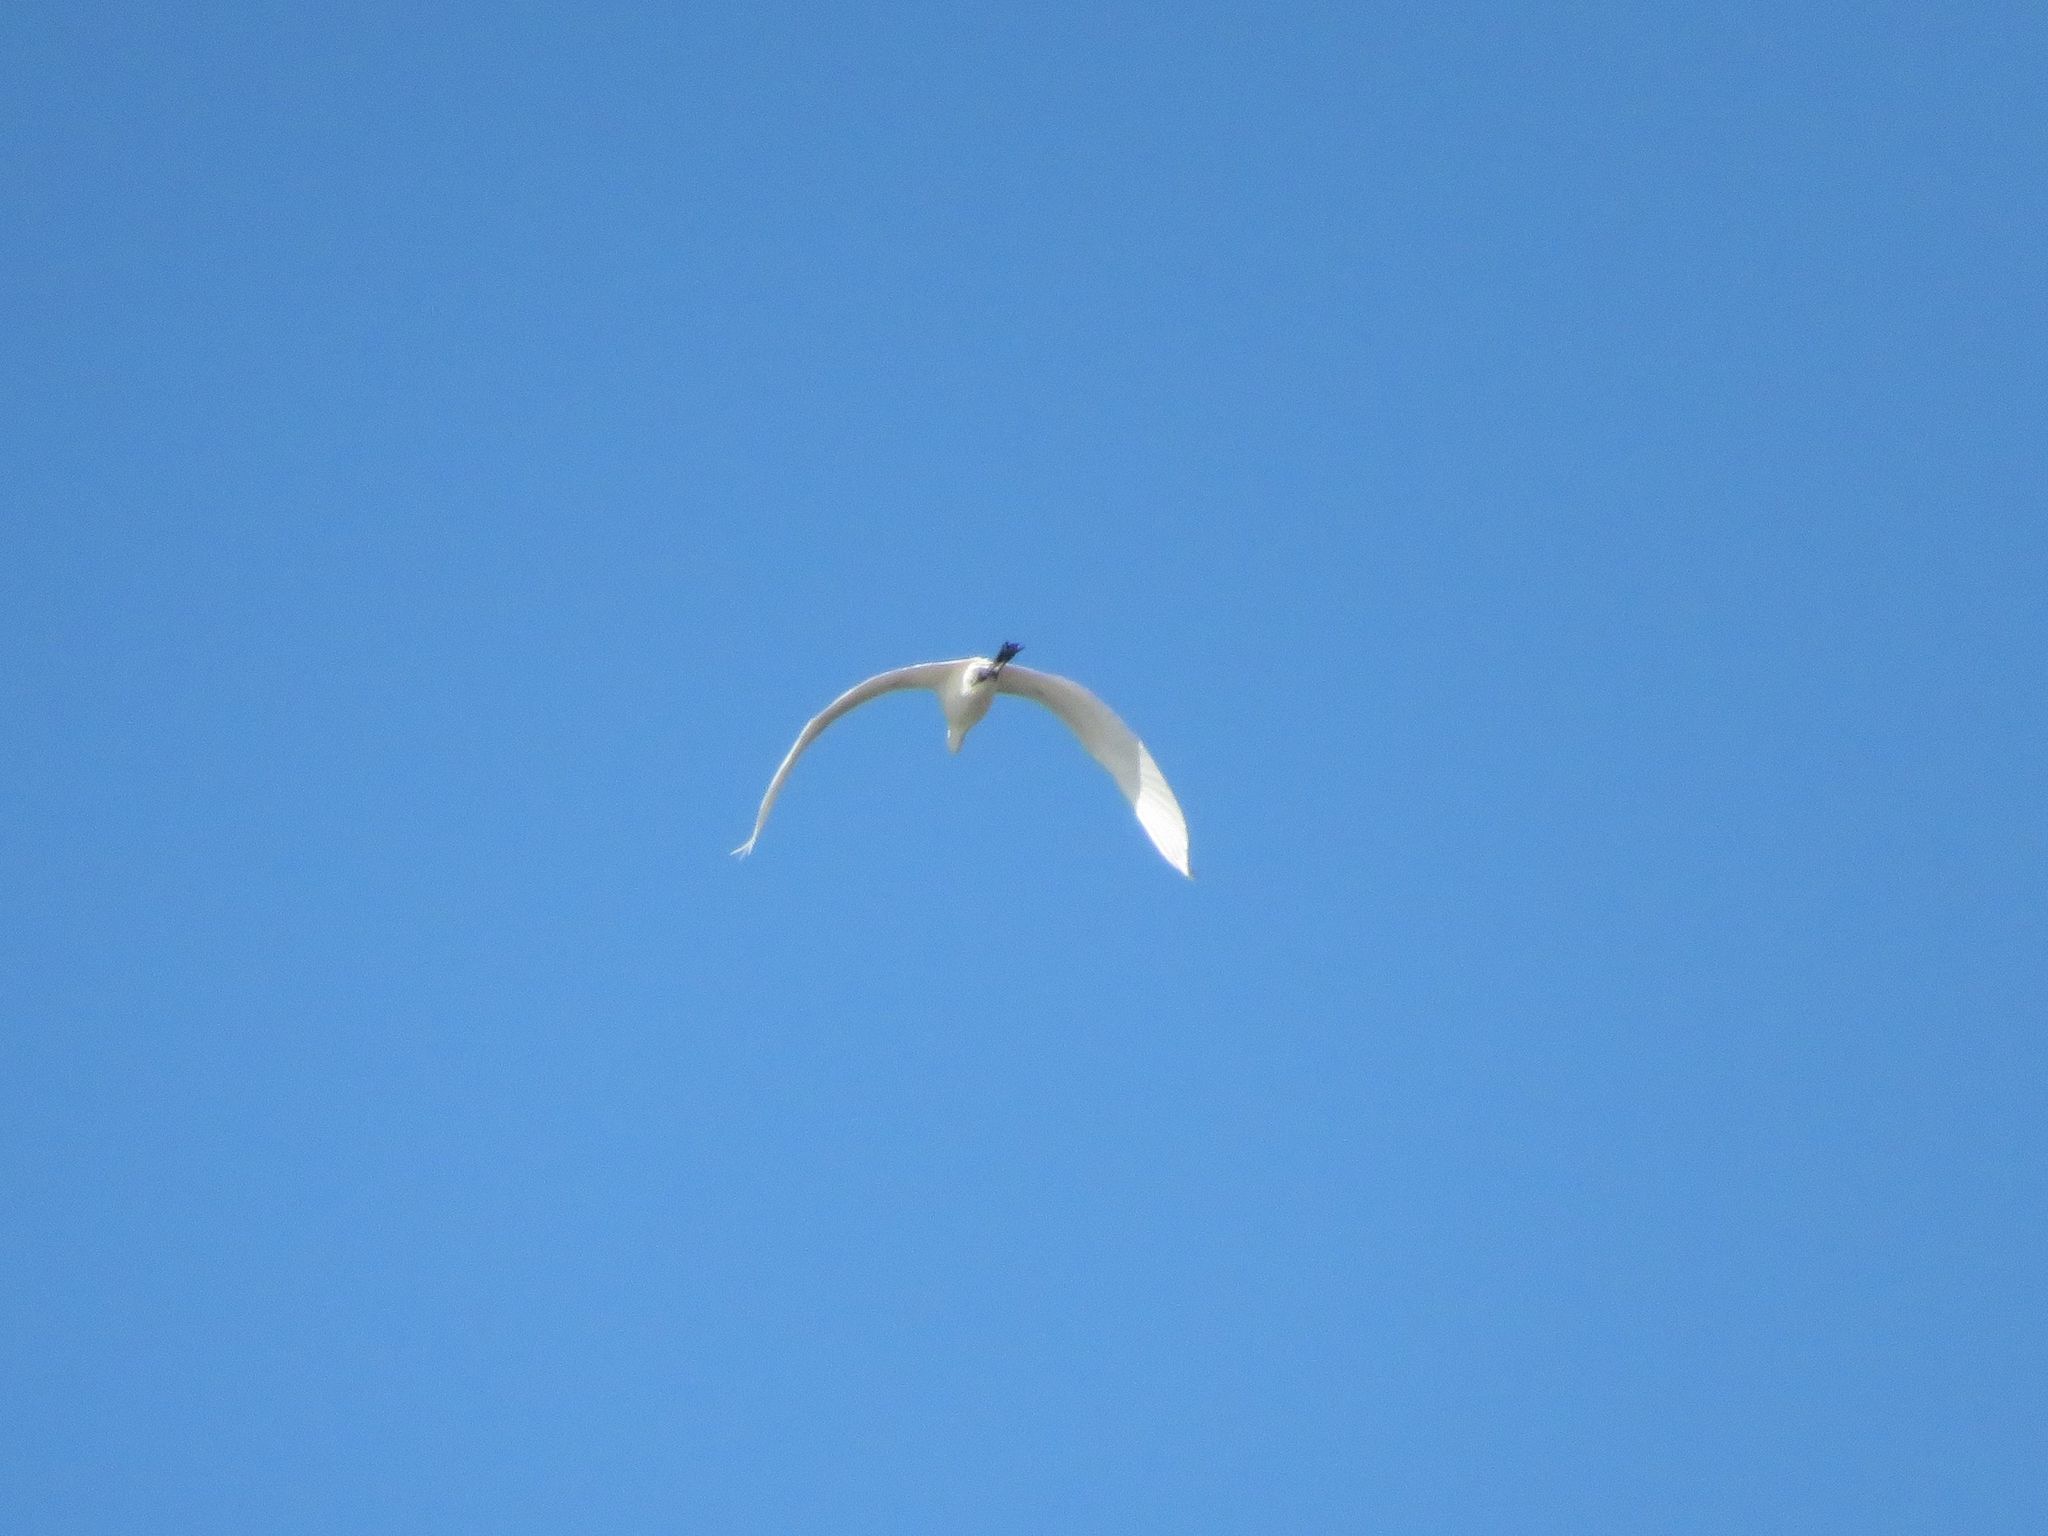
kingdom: Animalia
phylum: Chordata
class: Aves
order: Pelecaniformes
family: Ardeidae
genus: Ardea
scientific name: Ardea alba
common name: Great egret
